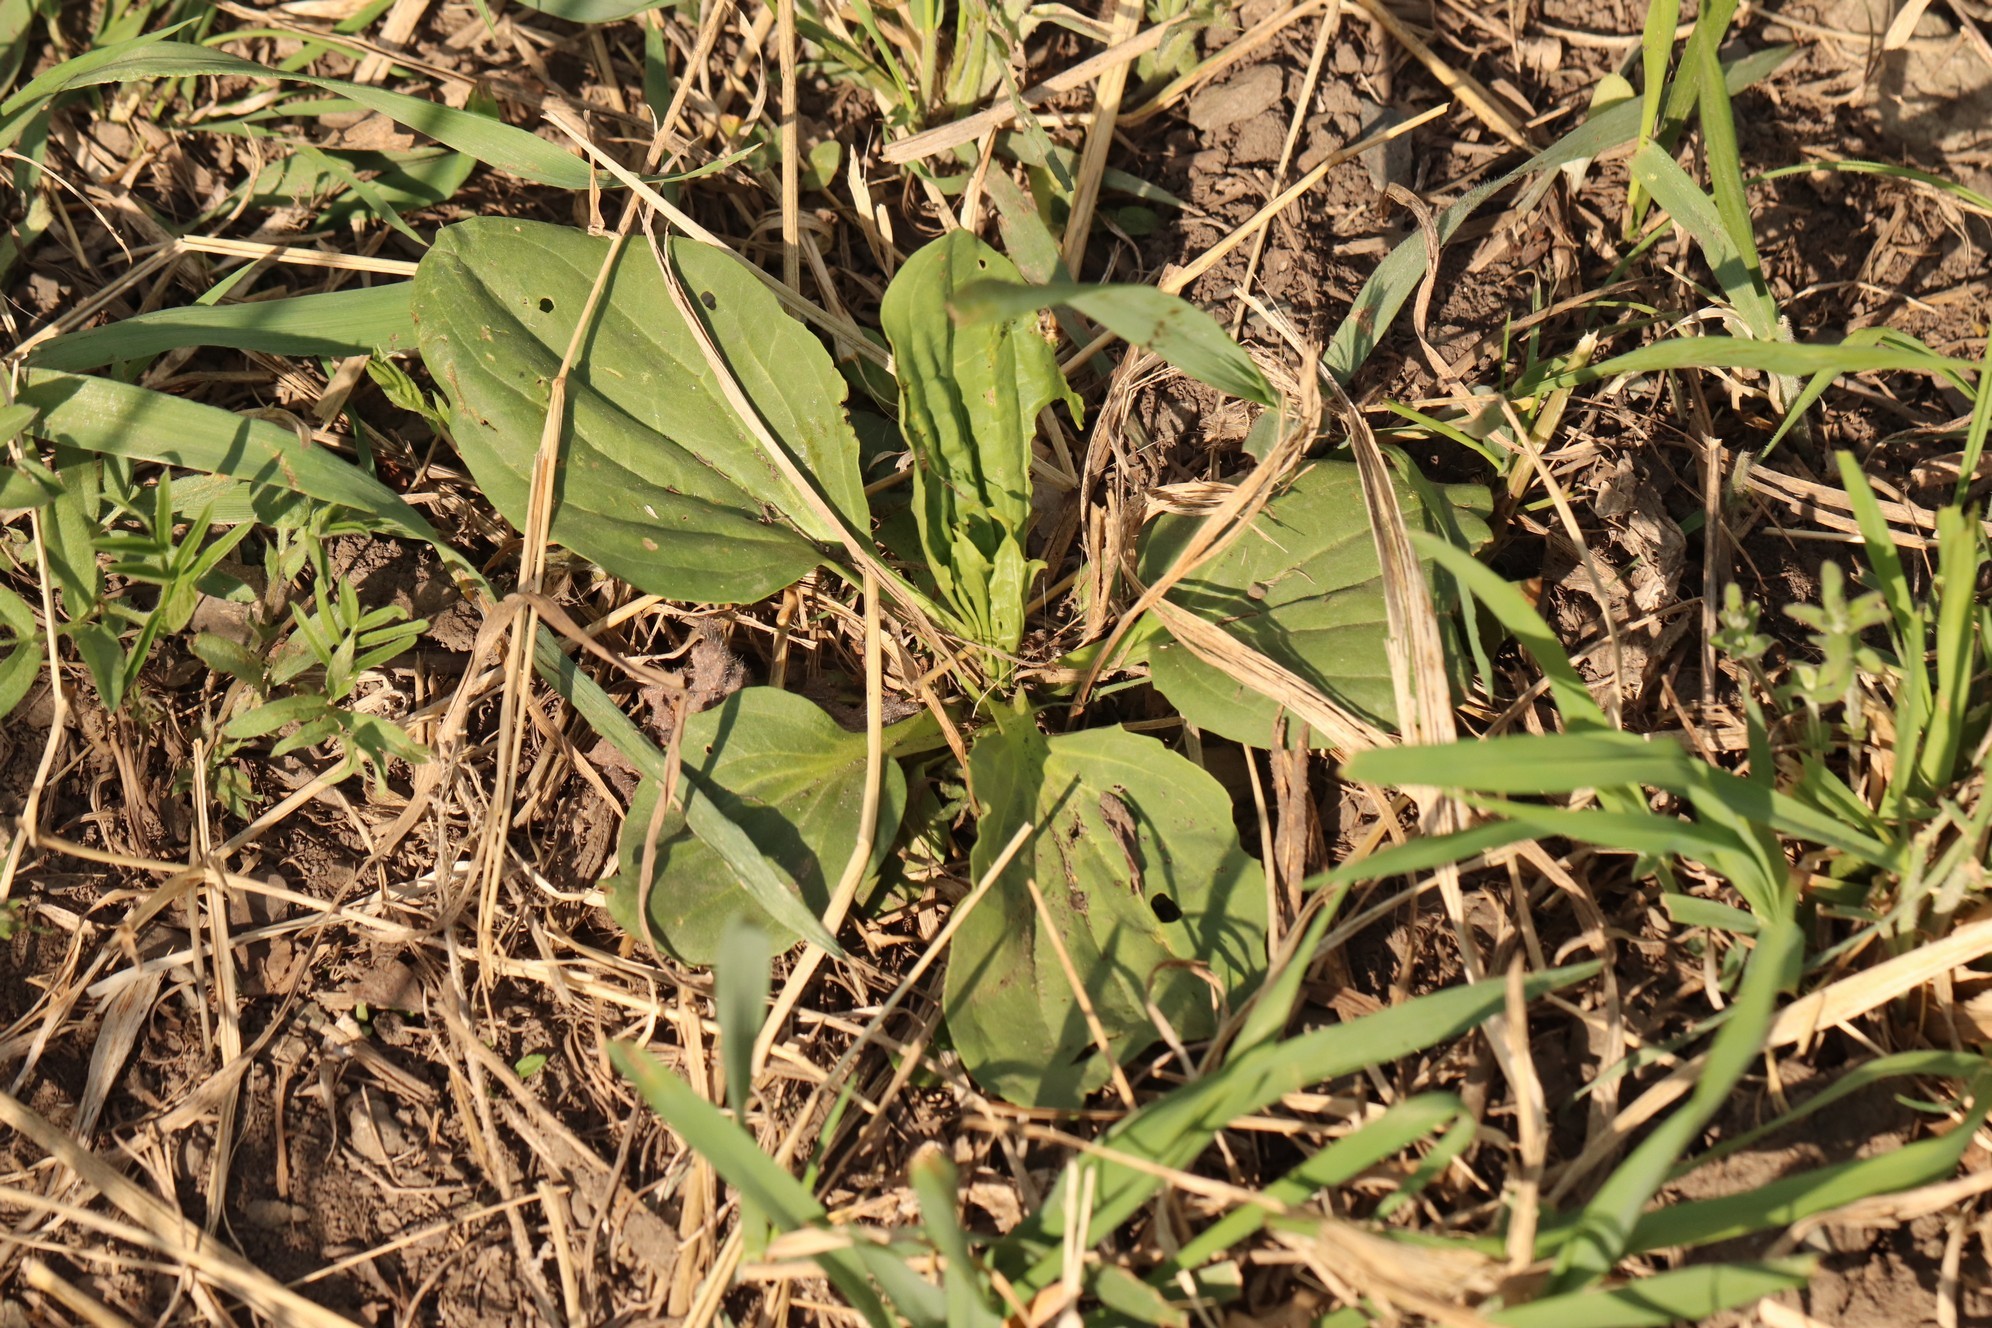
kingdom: Plantae
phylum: Tracheophyta
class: Magnoliopsida
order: Lamiales
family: Plantaginaceae
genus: Plantago
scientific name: Plantago major
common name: Common plantain
